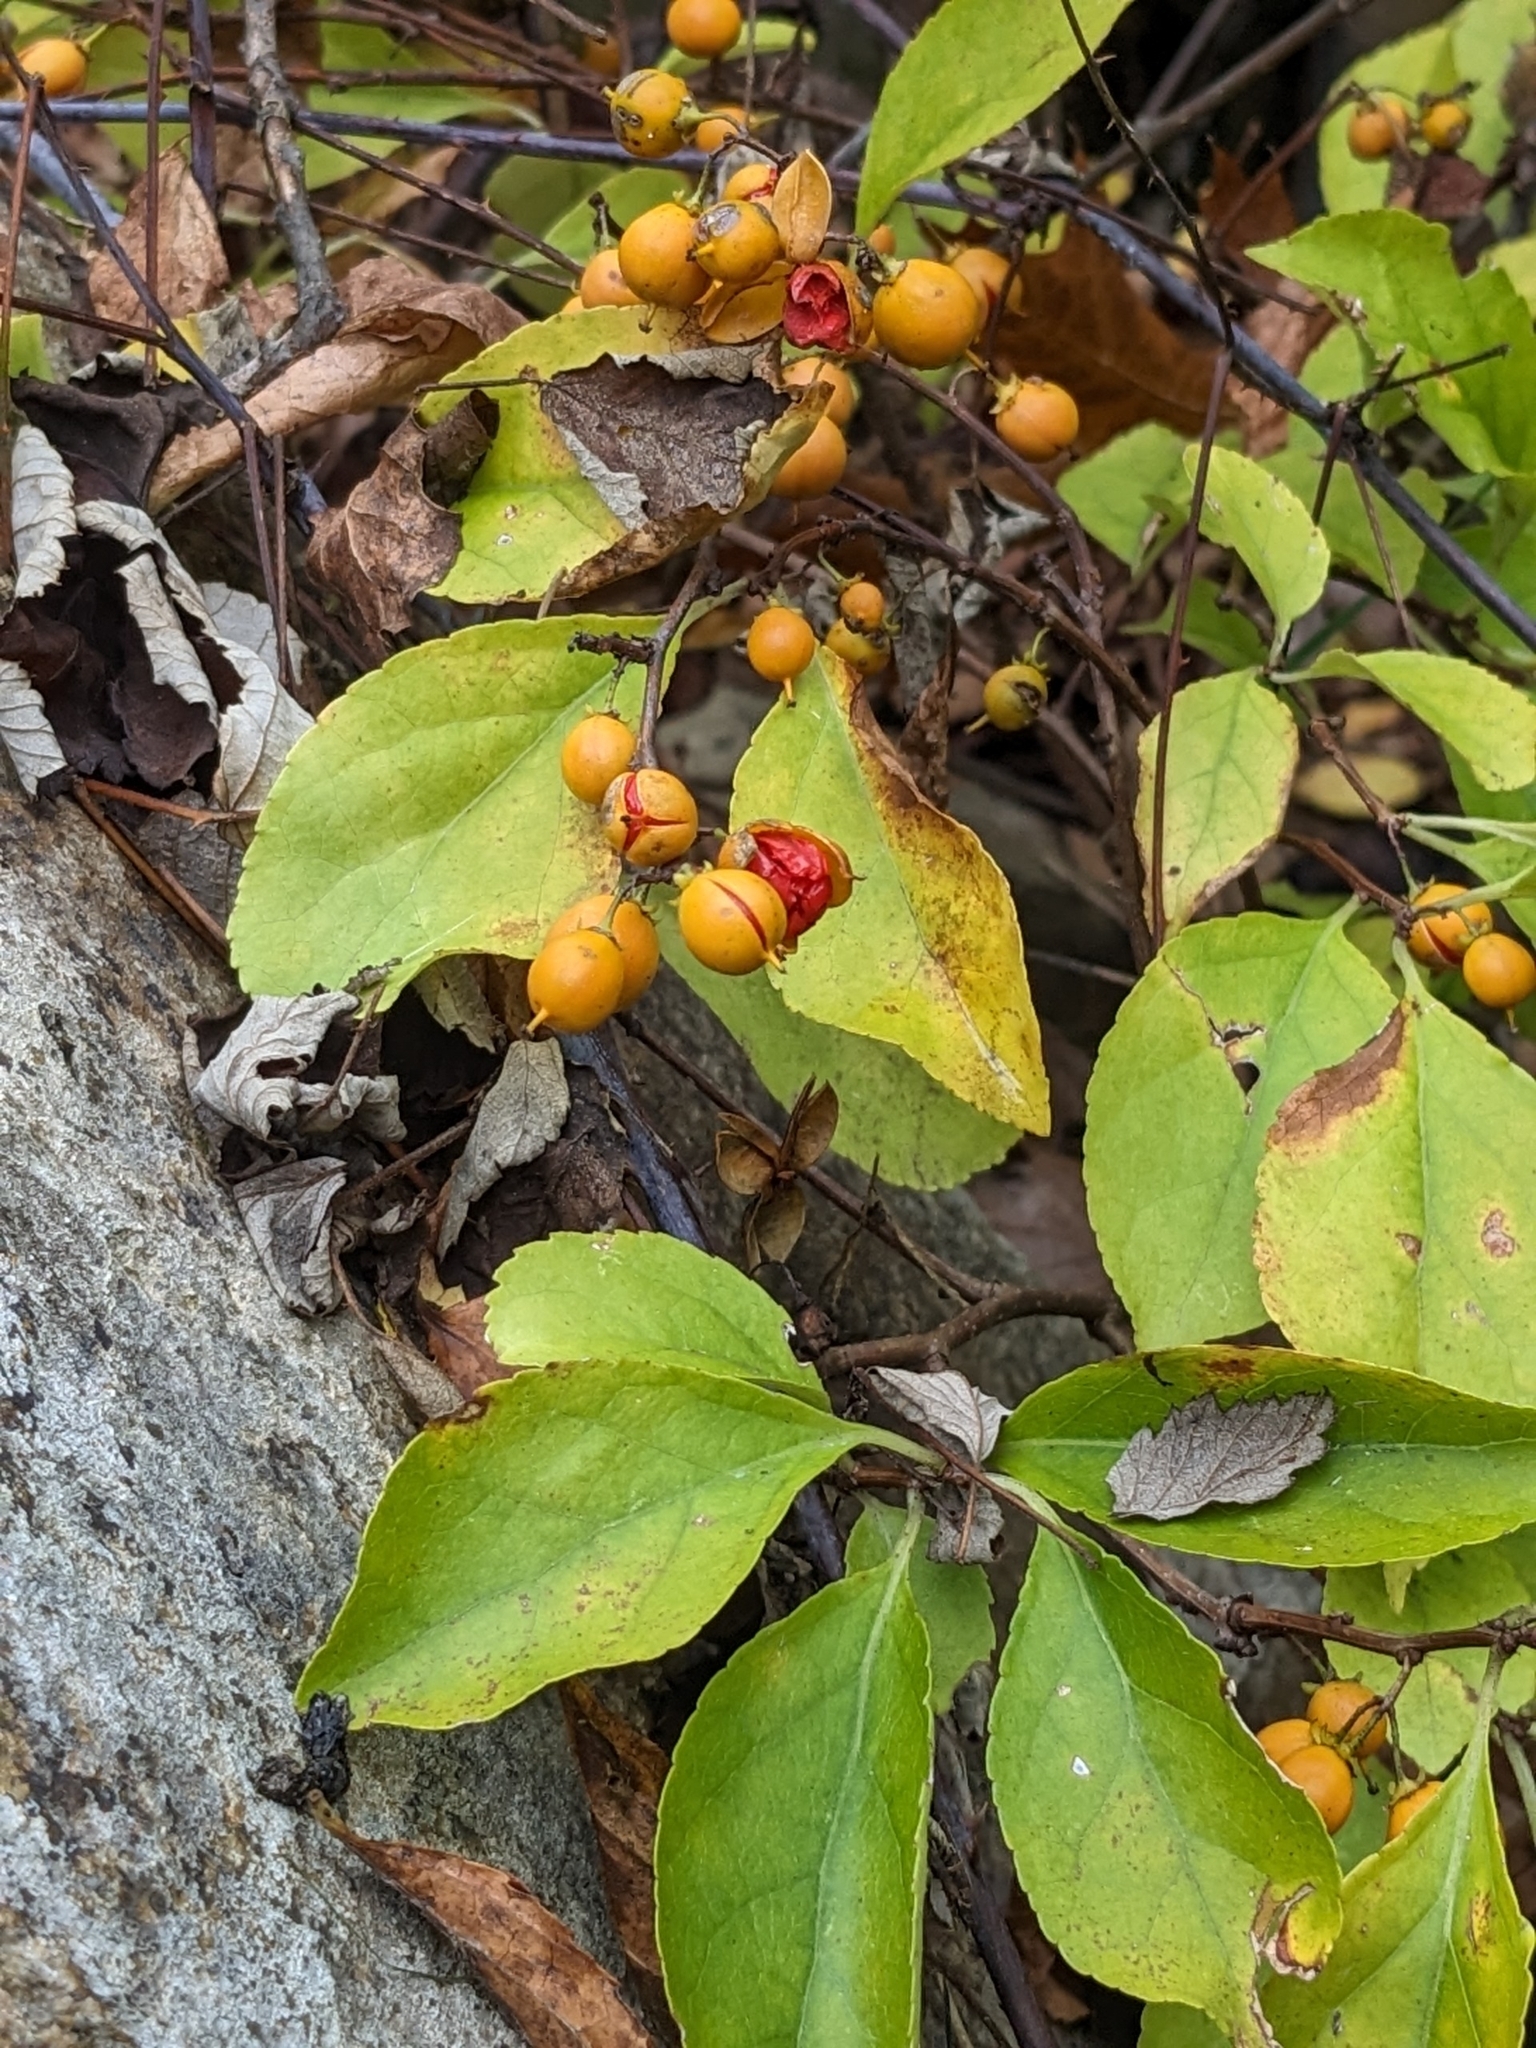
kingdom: Plantae
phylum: Tracheophyta
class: Magnoliopsida
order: Celastrales
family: Celastraceae
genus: Celastrus
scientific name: Celastrus orbiculatus
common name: Oriental bittersweet
